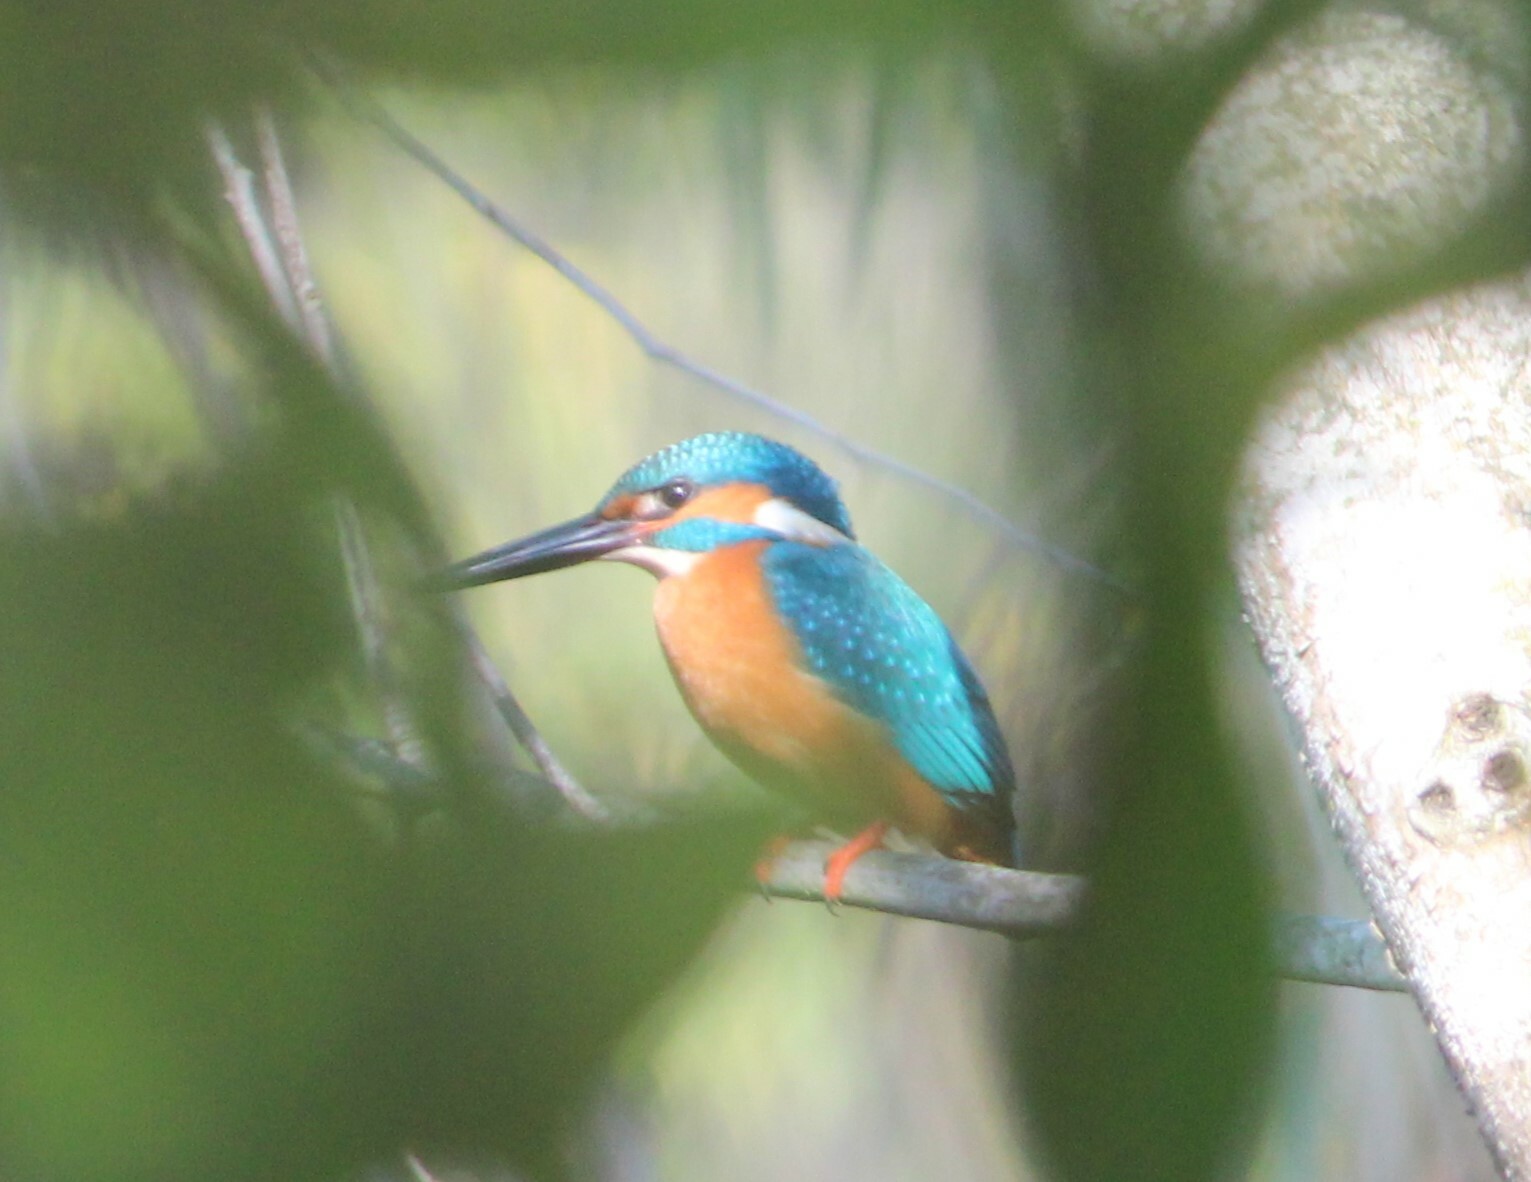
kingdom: Animalia
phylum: Chordata
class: Aves
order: Coraciiformes
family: Alcedinidae
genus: Alcedo
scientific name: Alcedo atthis
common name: Common kingfisher
